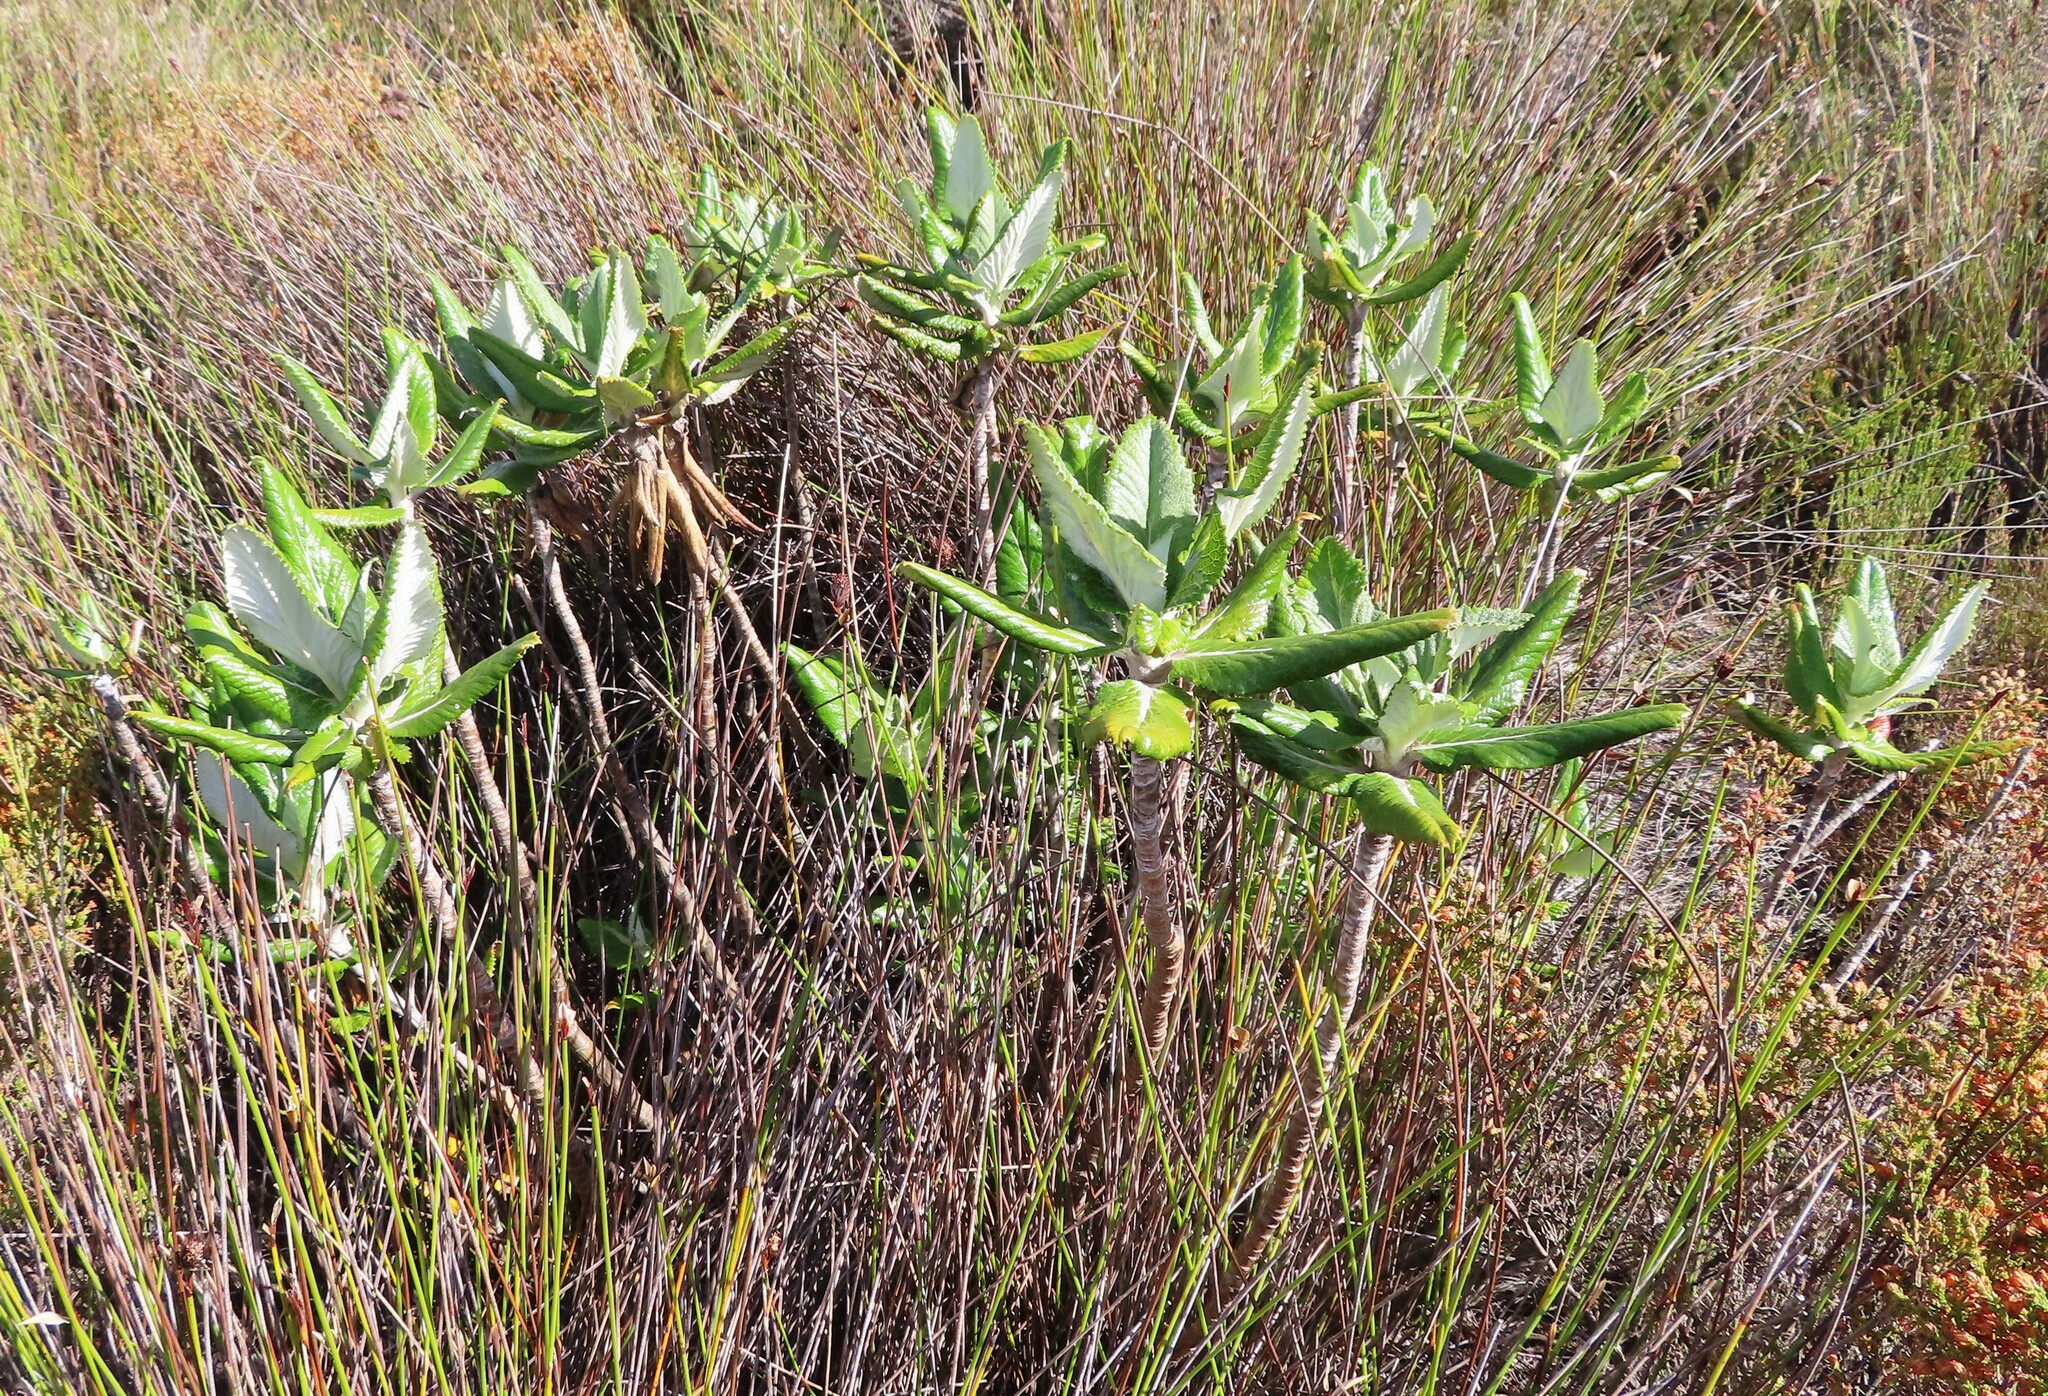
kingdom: Plantae
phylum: Tracheophyta
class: Magnoliopsida
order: Apiales
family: Apiaceae
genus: Hermas
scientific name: Hermas villosa
